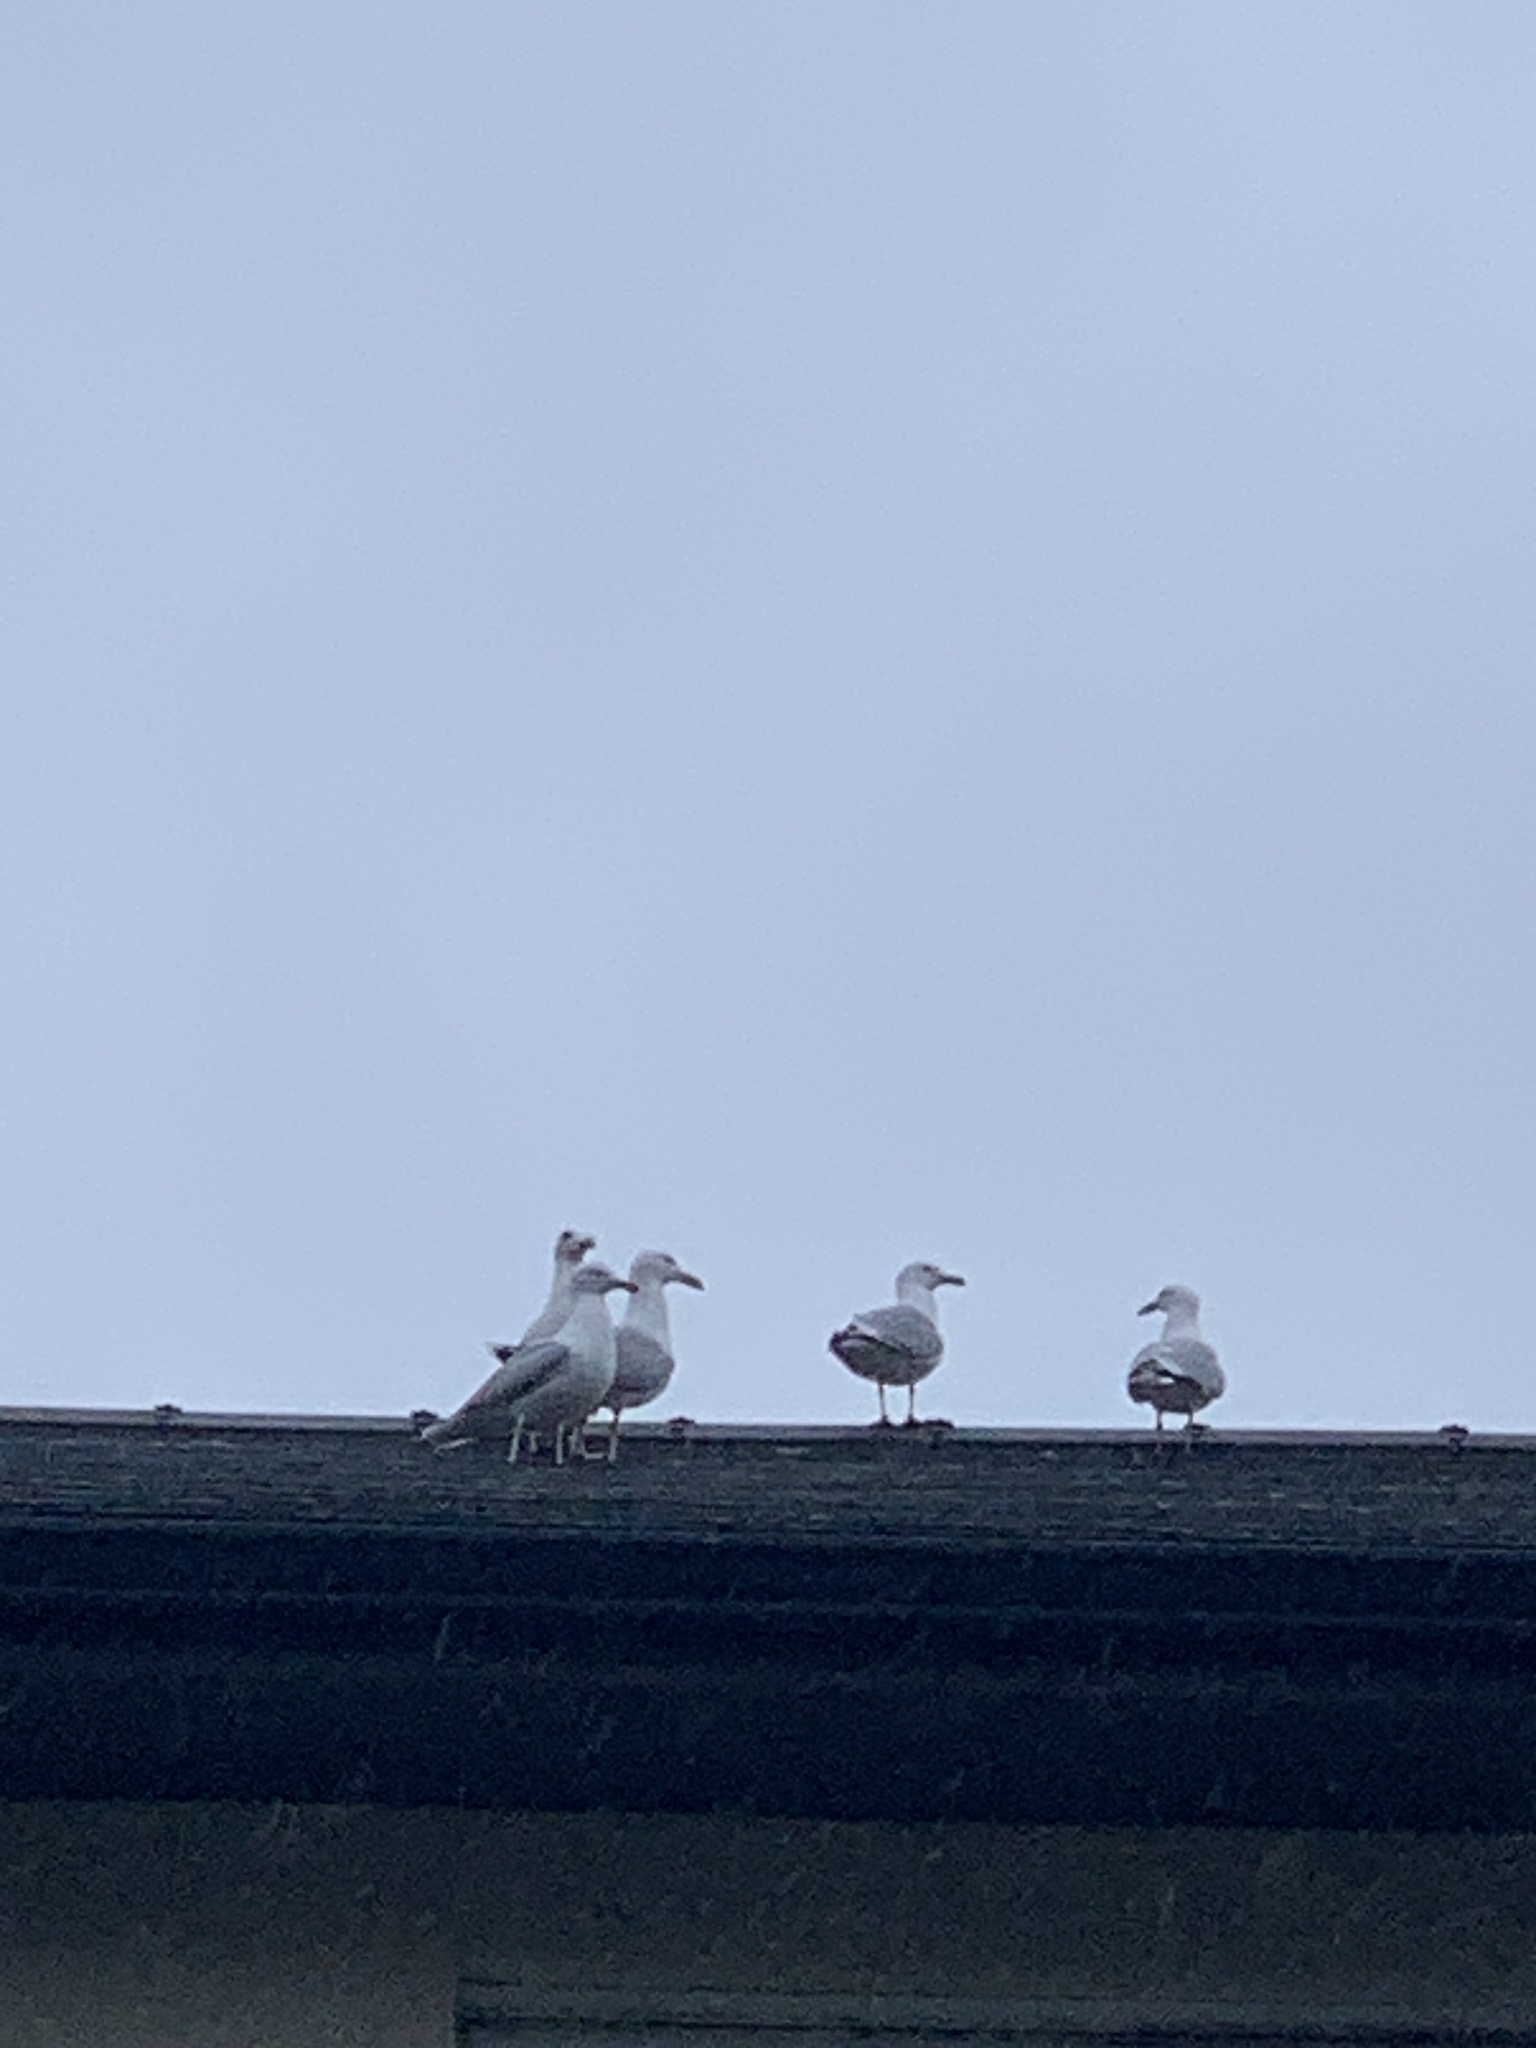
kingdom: Animalia
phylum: Chordata
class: Aves
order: Charadriiformes
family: Laridae
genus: Larus
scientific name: Larus argentatus
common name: Herring gull
